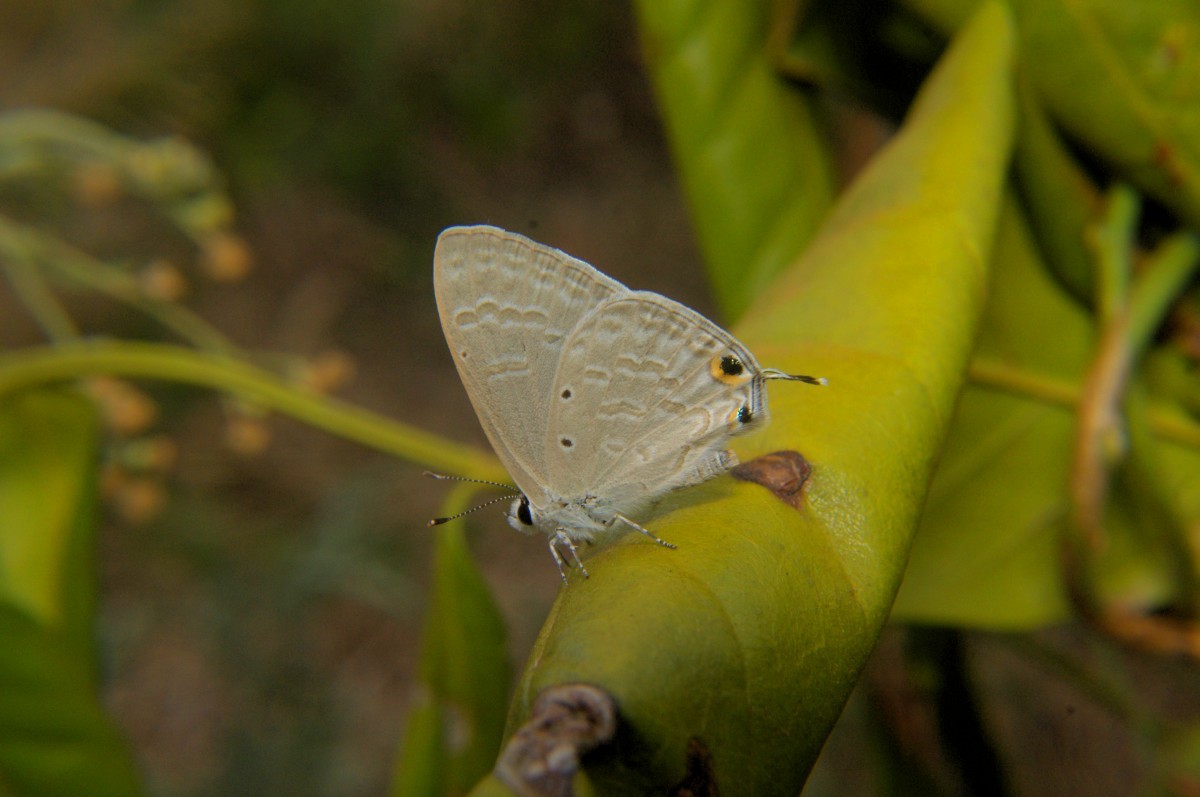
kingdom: Animalia
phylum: Arthropoda
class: Insecta
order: Lepidoptera
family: Lycaenidae
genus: Catochrysops
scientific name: Catochrysops strabo
